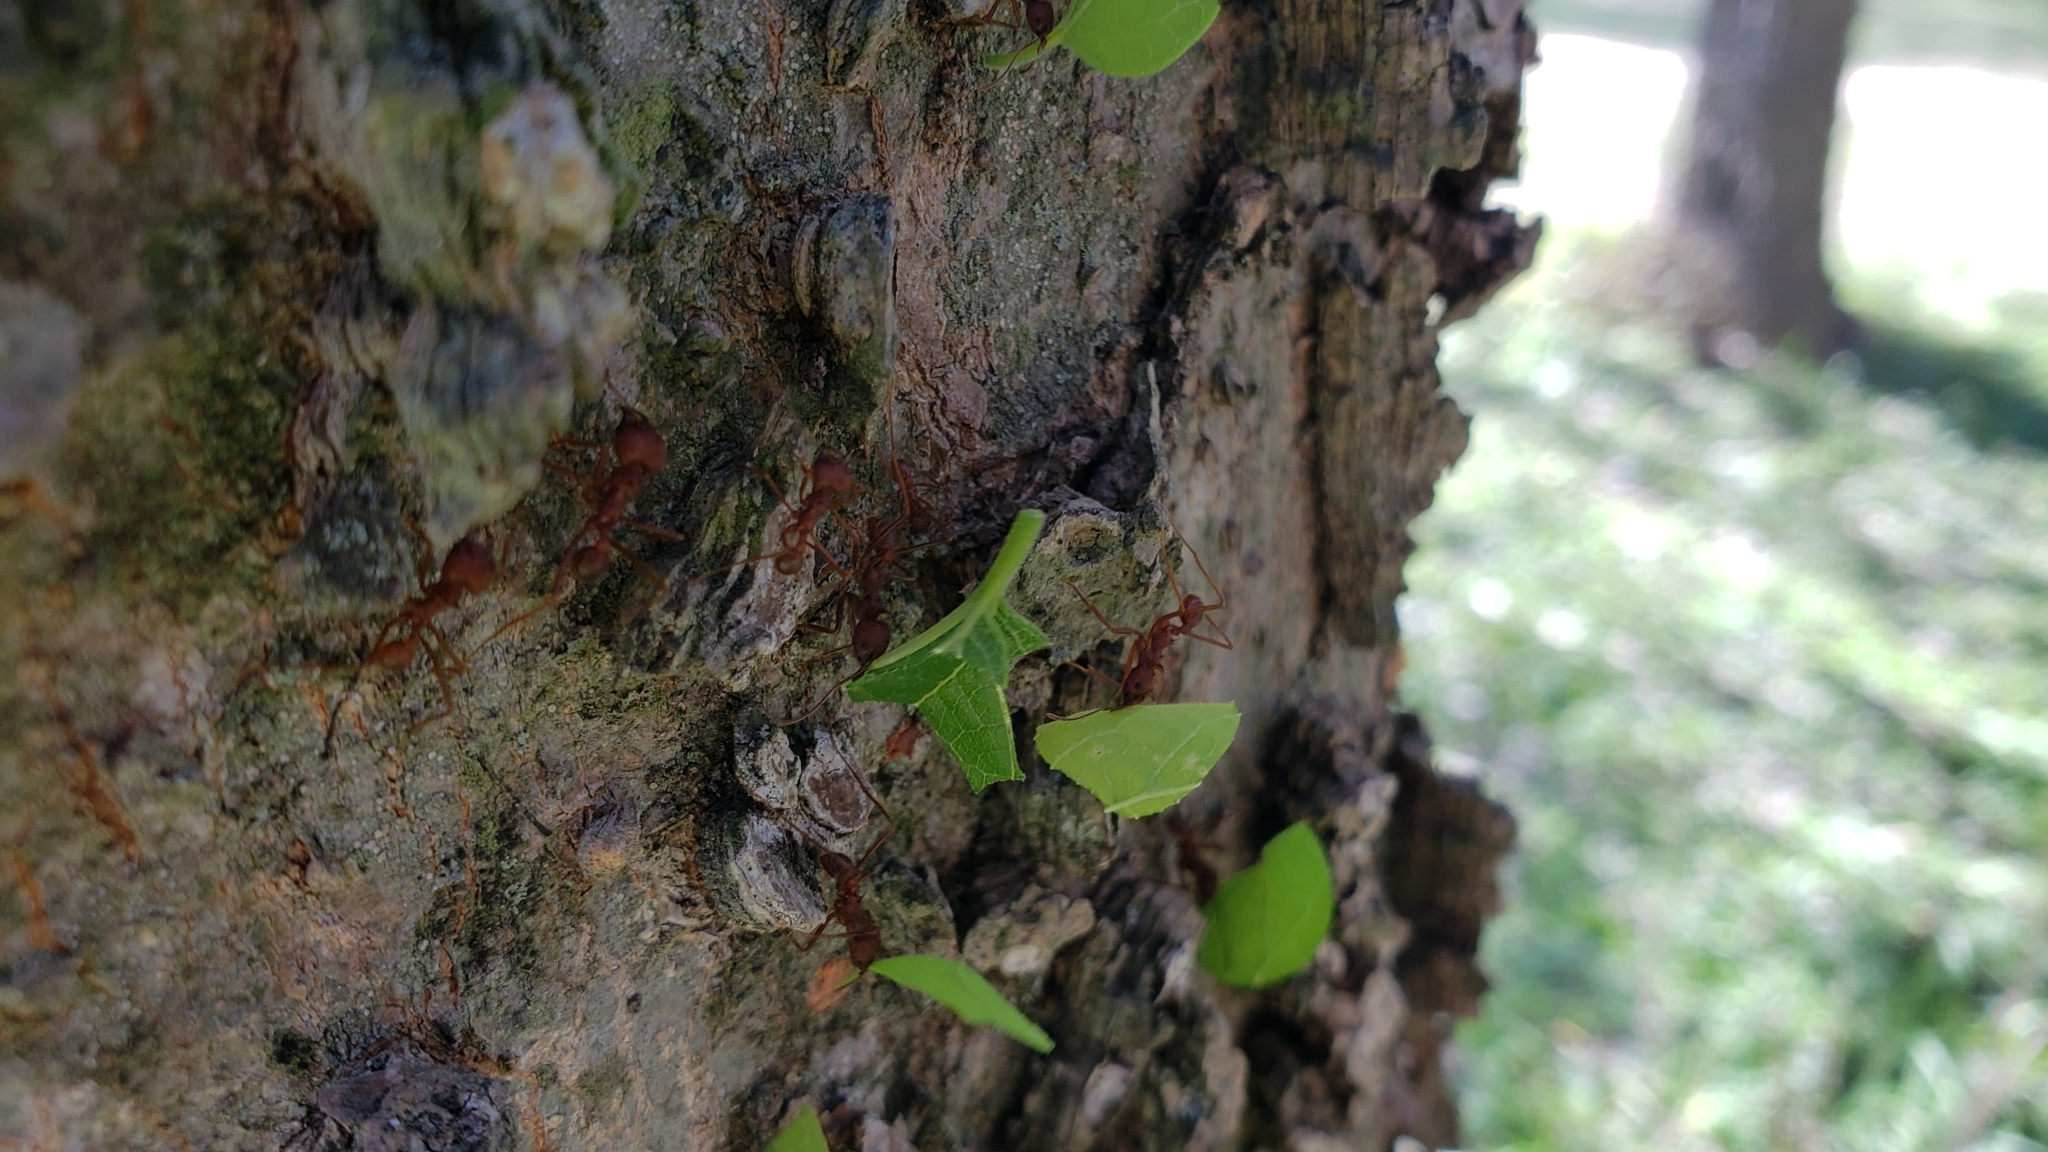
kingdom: Animalia
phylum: Arthropoda
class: Insecta
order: Hymenoptera
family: Formicidae
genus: Atta
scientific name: Atta texana
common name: Texas leafcutting ant
